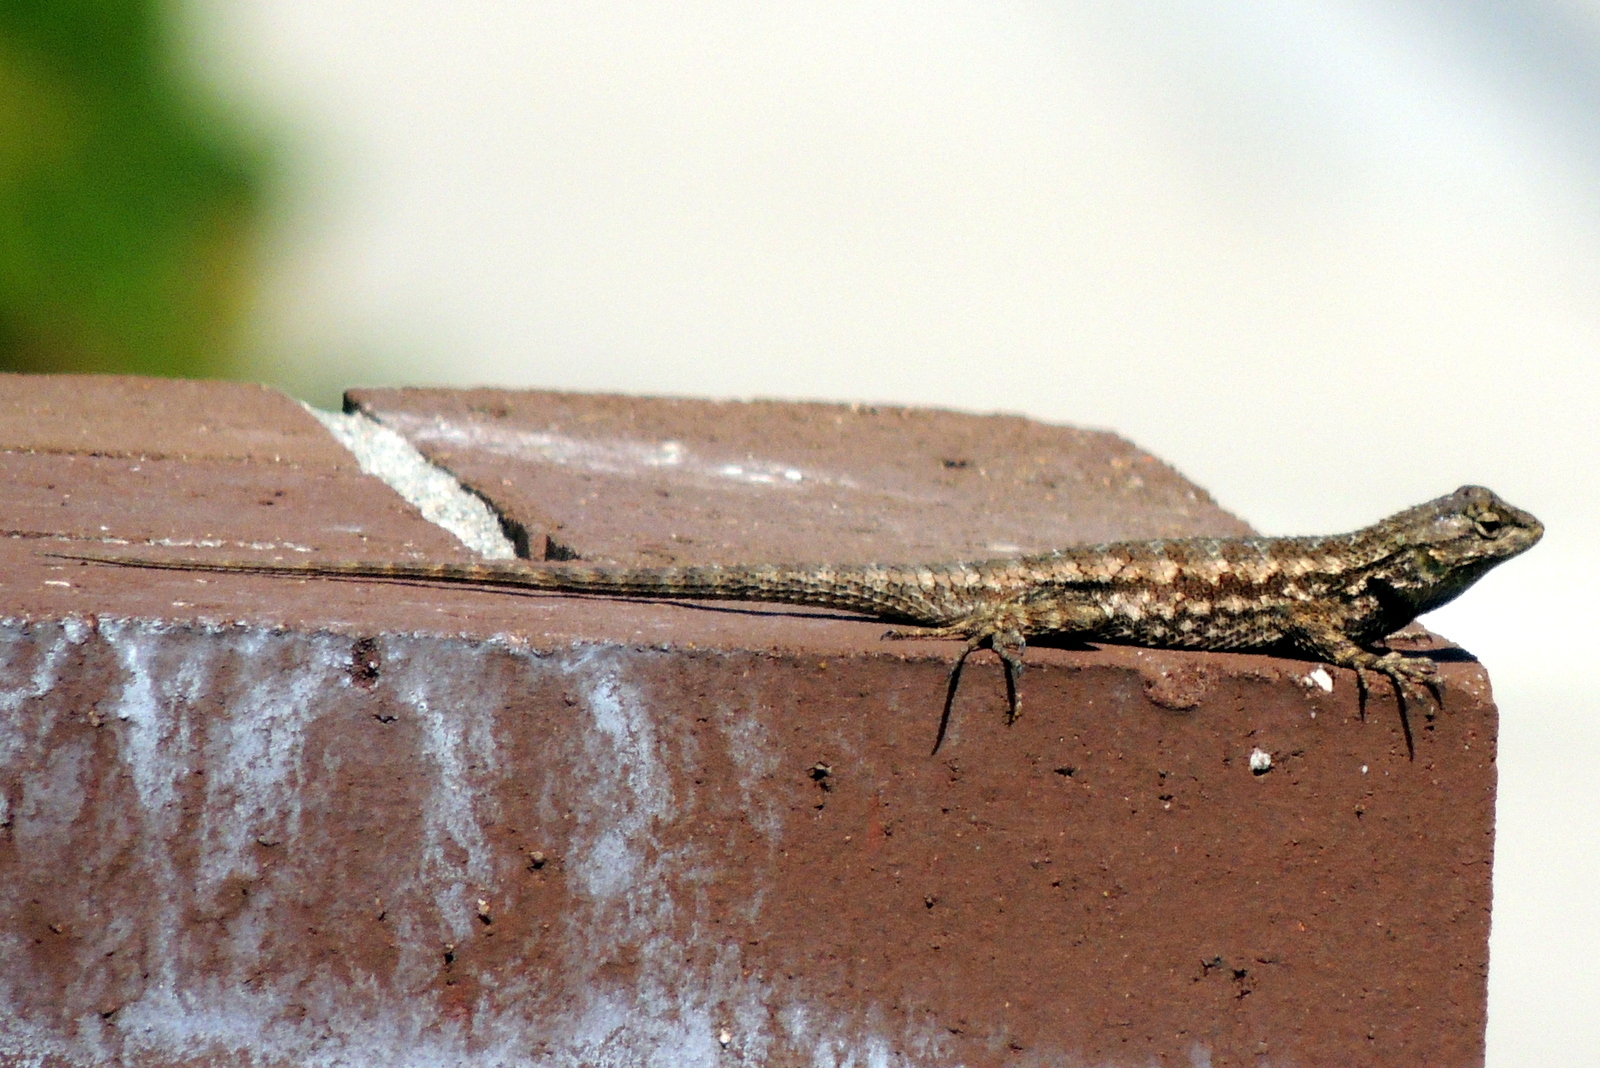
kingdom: Animalia
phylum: Chordata
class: Squamata
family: Phrynosomatidae
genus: Sceloporus
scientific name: Sceloporus occidentalis
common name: Western fence lizard
